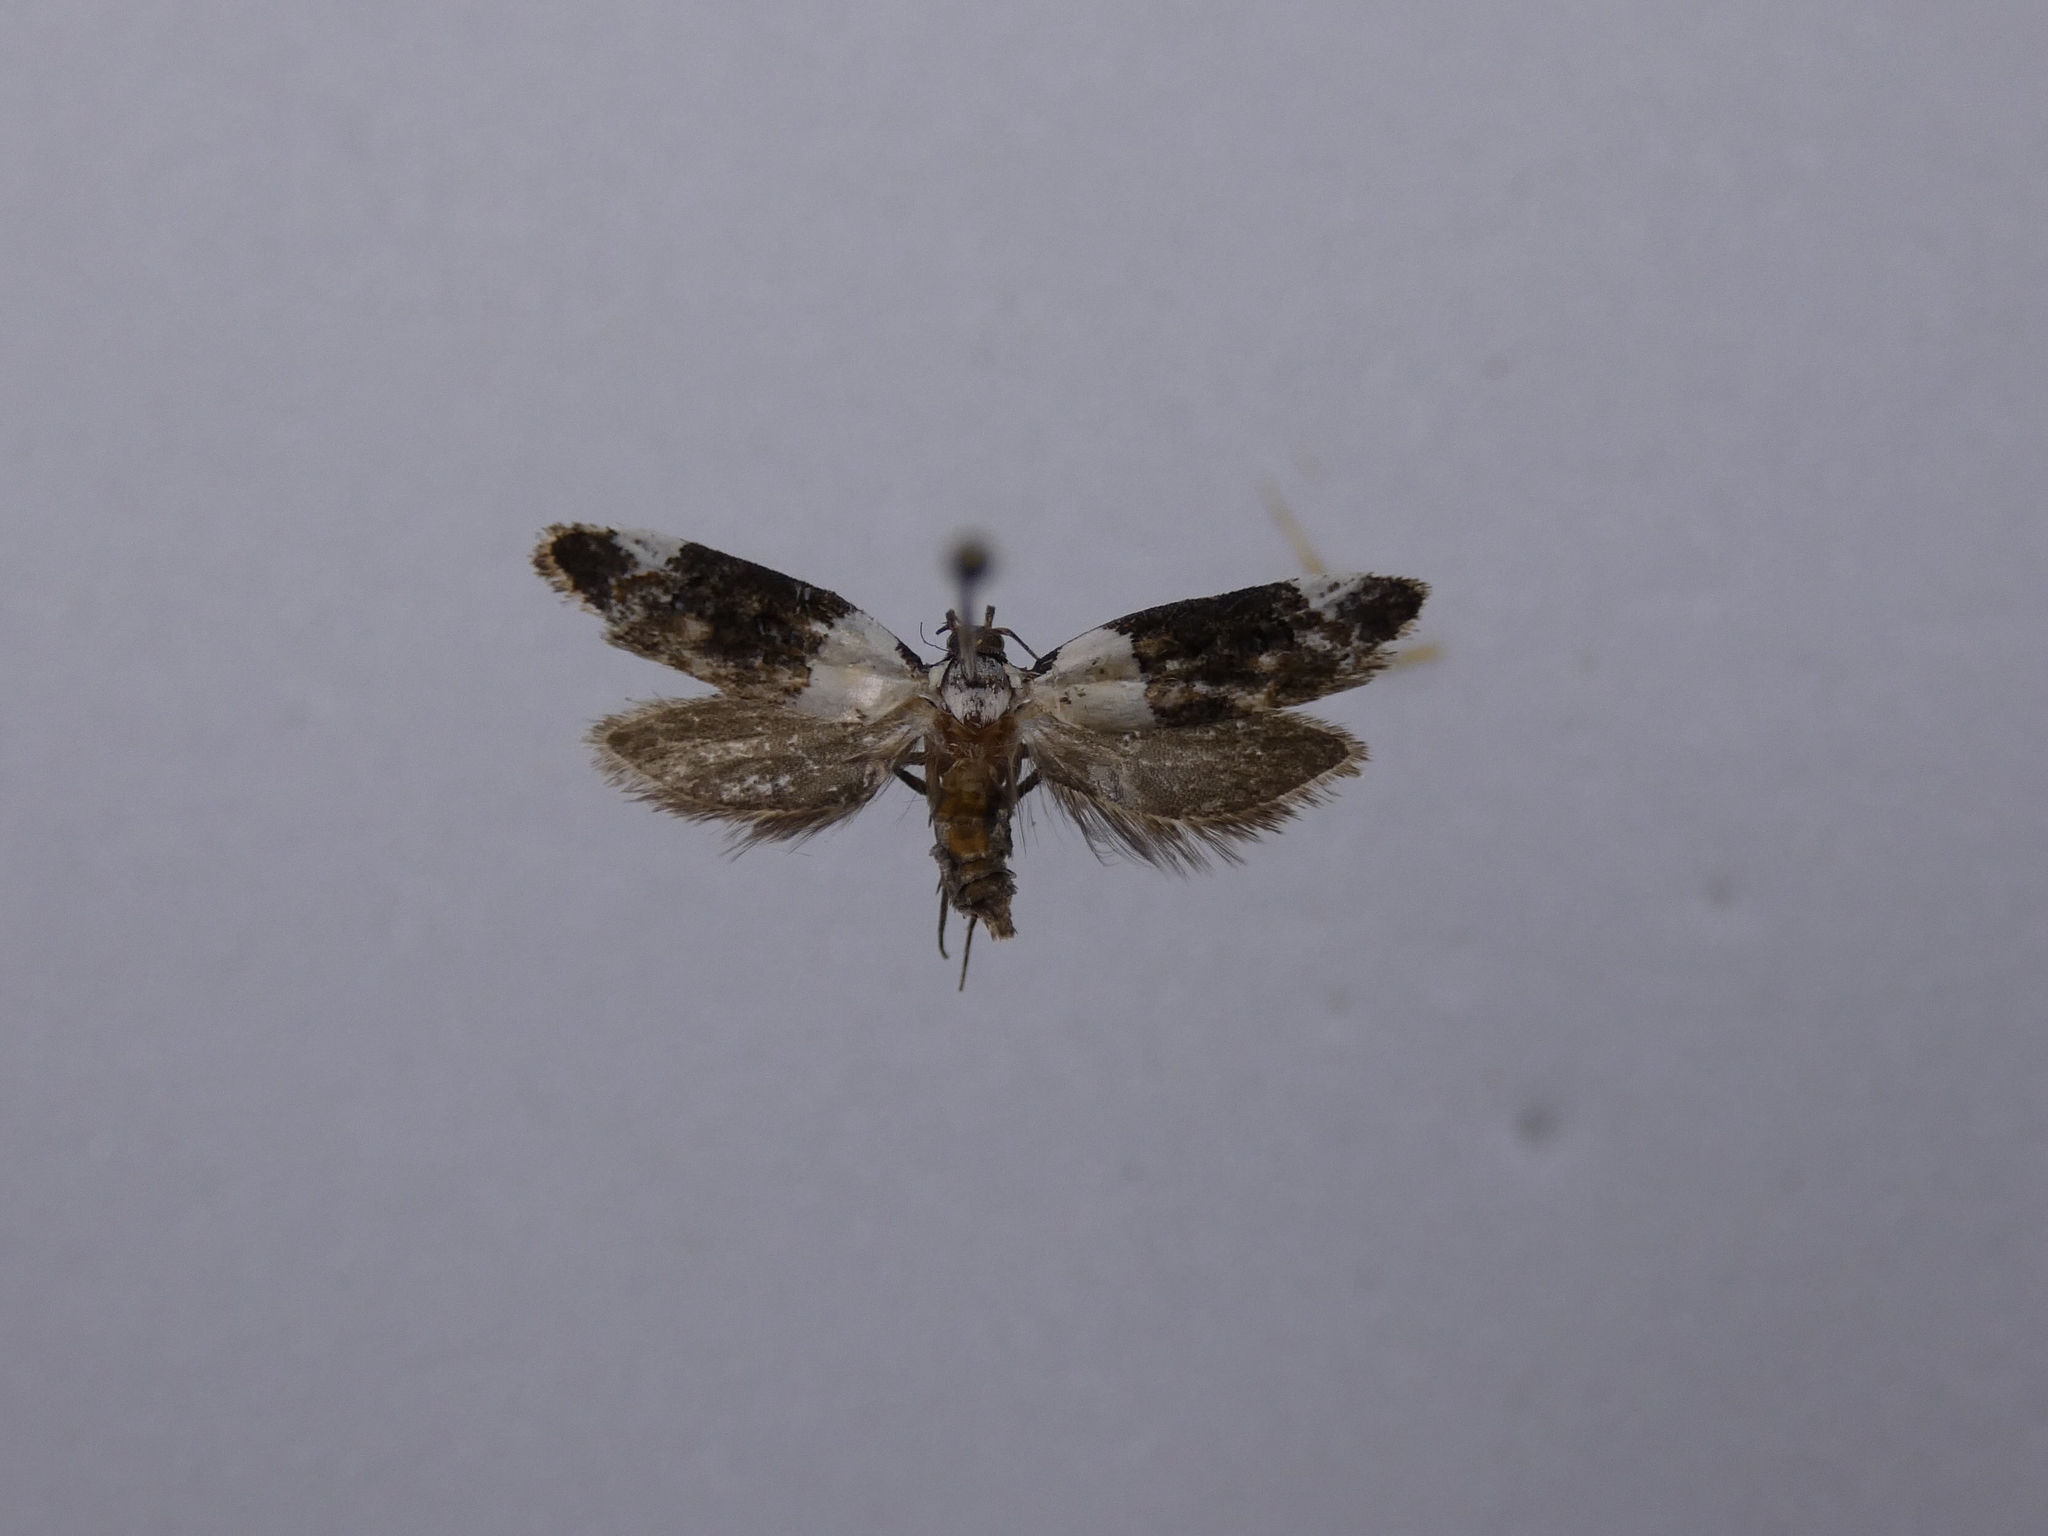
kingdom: Animalia
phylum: Arthropoda
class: Insecta
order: Lepidoptera
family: Oecophoridae
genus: Trachypepla
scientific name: Trachypepla euryleucota
